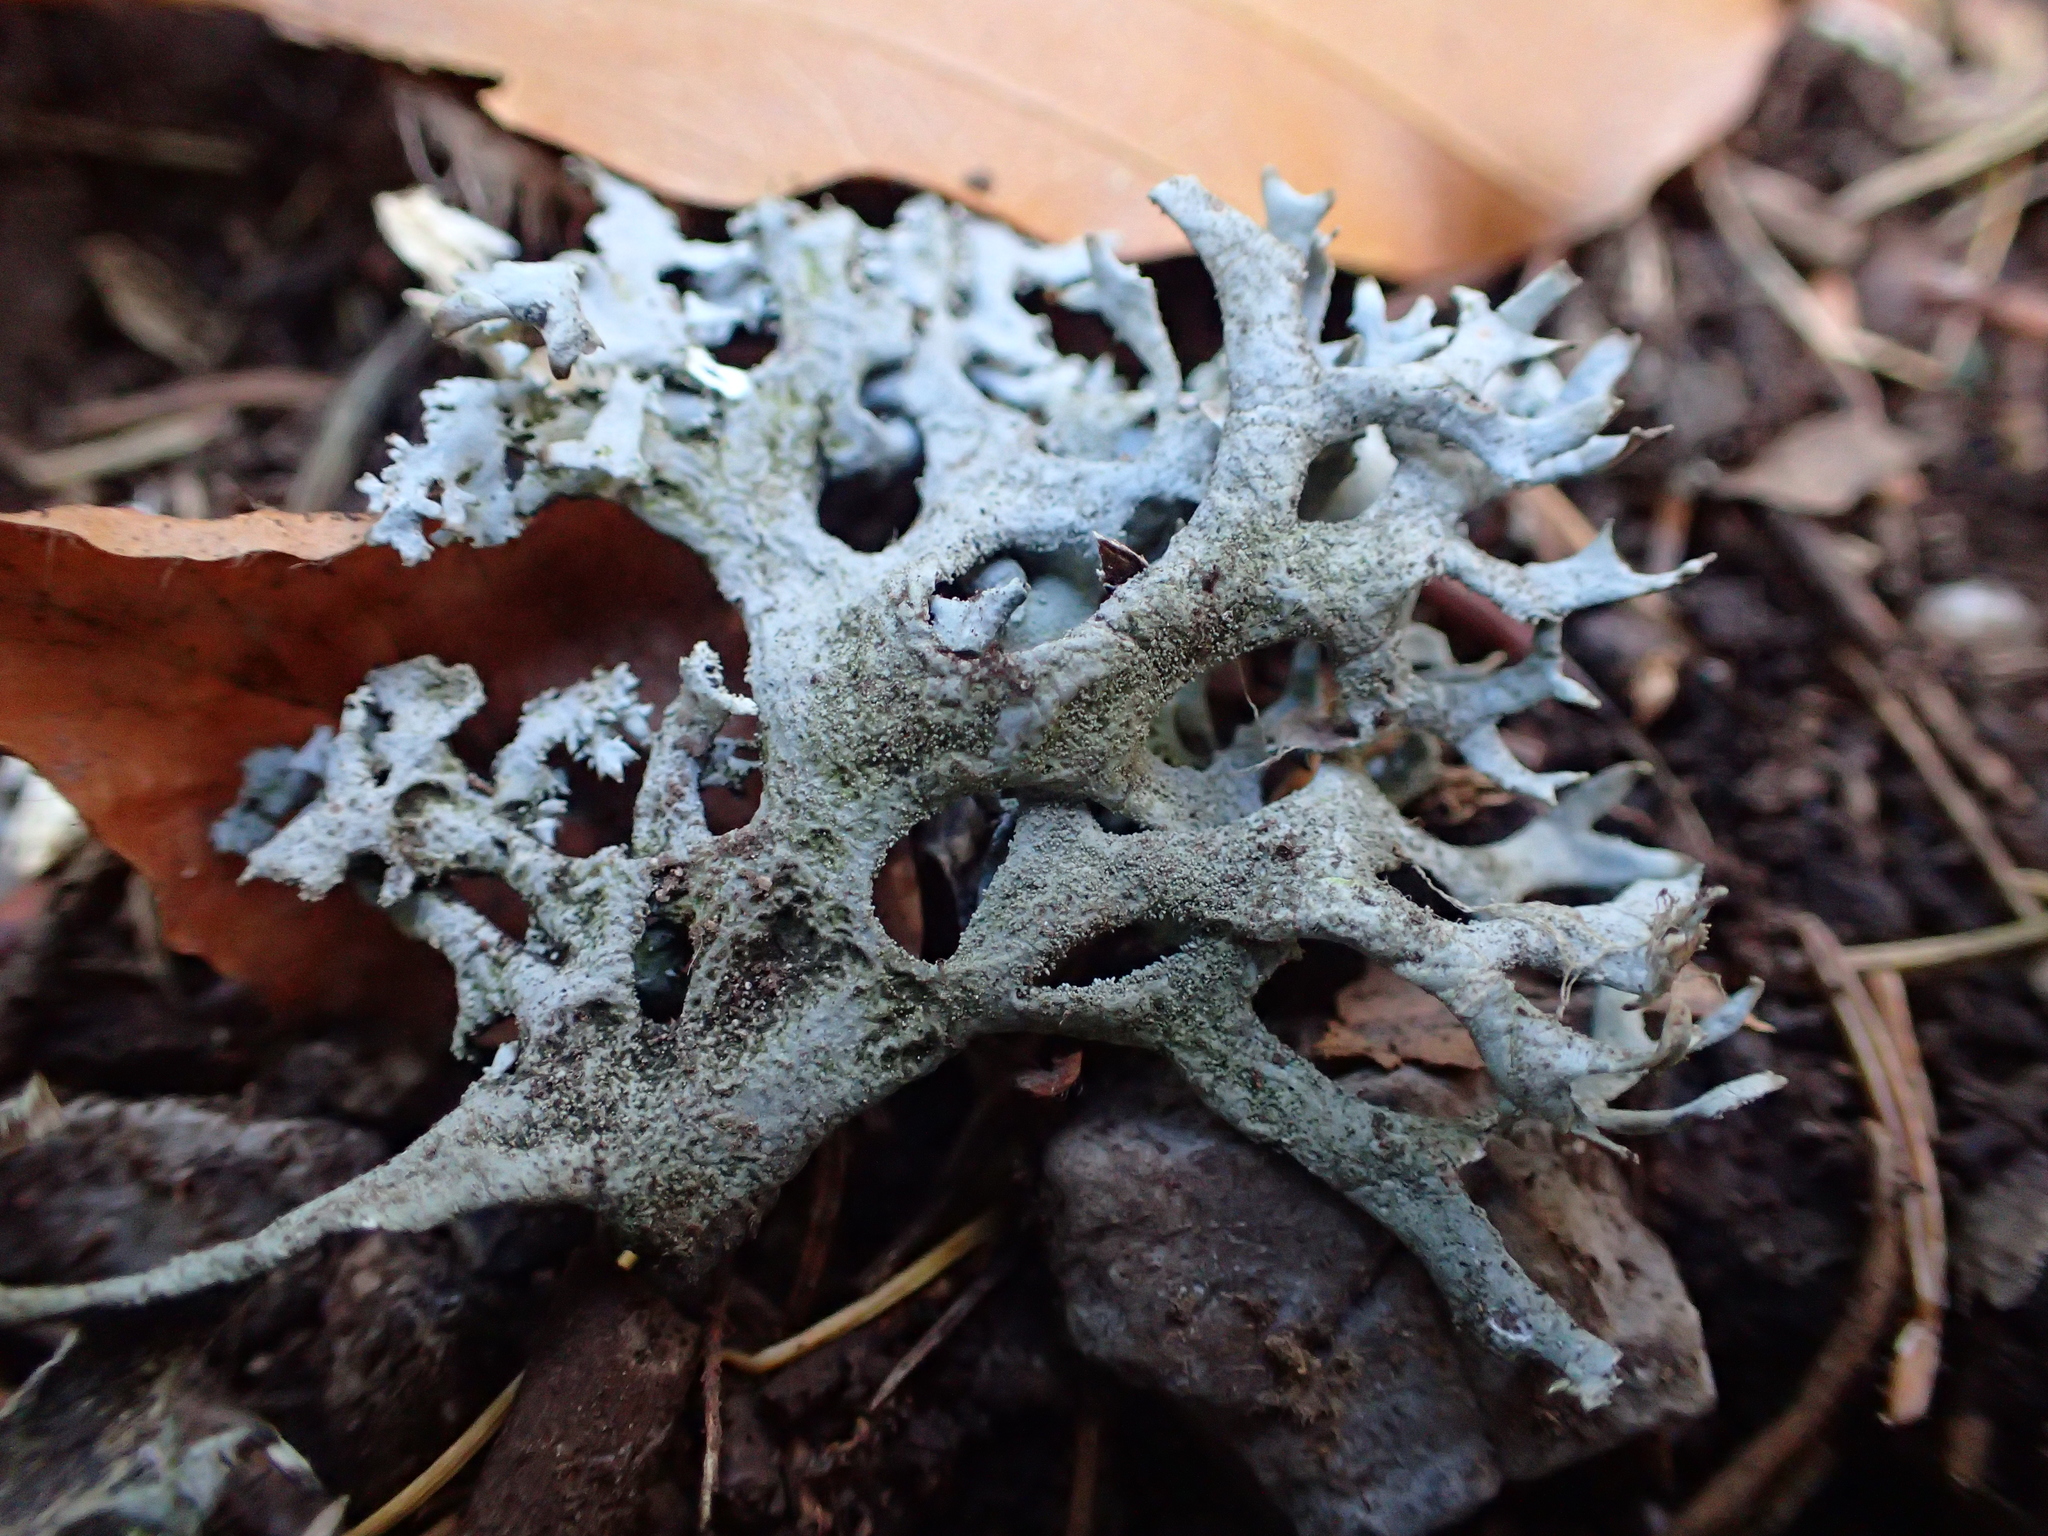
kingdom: Fungi
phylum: Ascomycota
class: Lecanoromycetes
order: Lecanorales
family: Parmeliaceae
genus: Pseudevernia
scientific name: Pseudevernia furfuracea
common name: Tree moss
